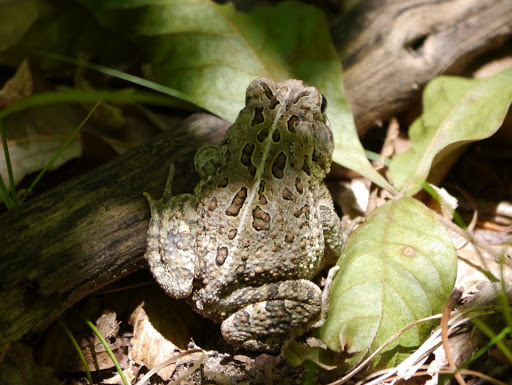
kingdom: Animalia
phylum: Chordata
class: Amphibia
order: Anura
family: Bufonidae
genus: Anaxyrus
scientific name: Anaxyrus fowleri
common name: Fowler's toad
